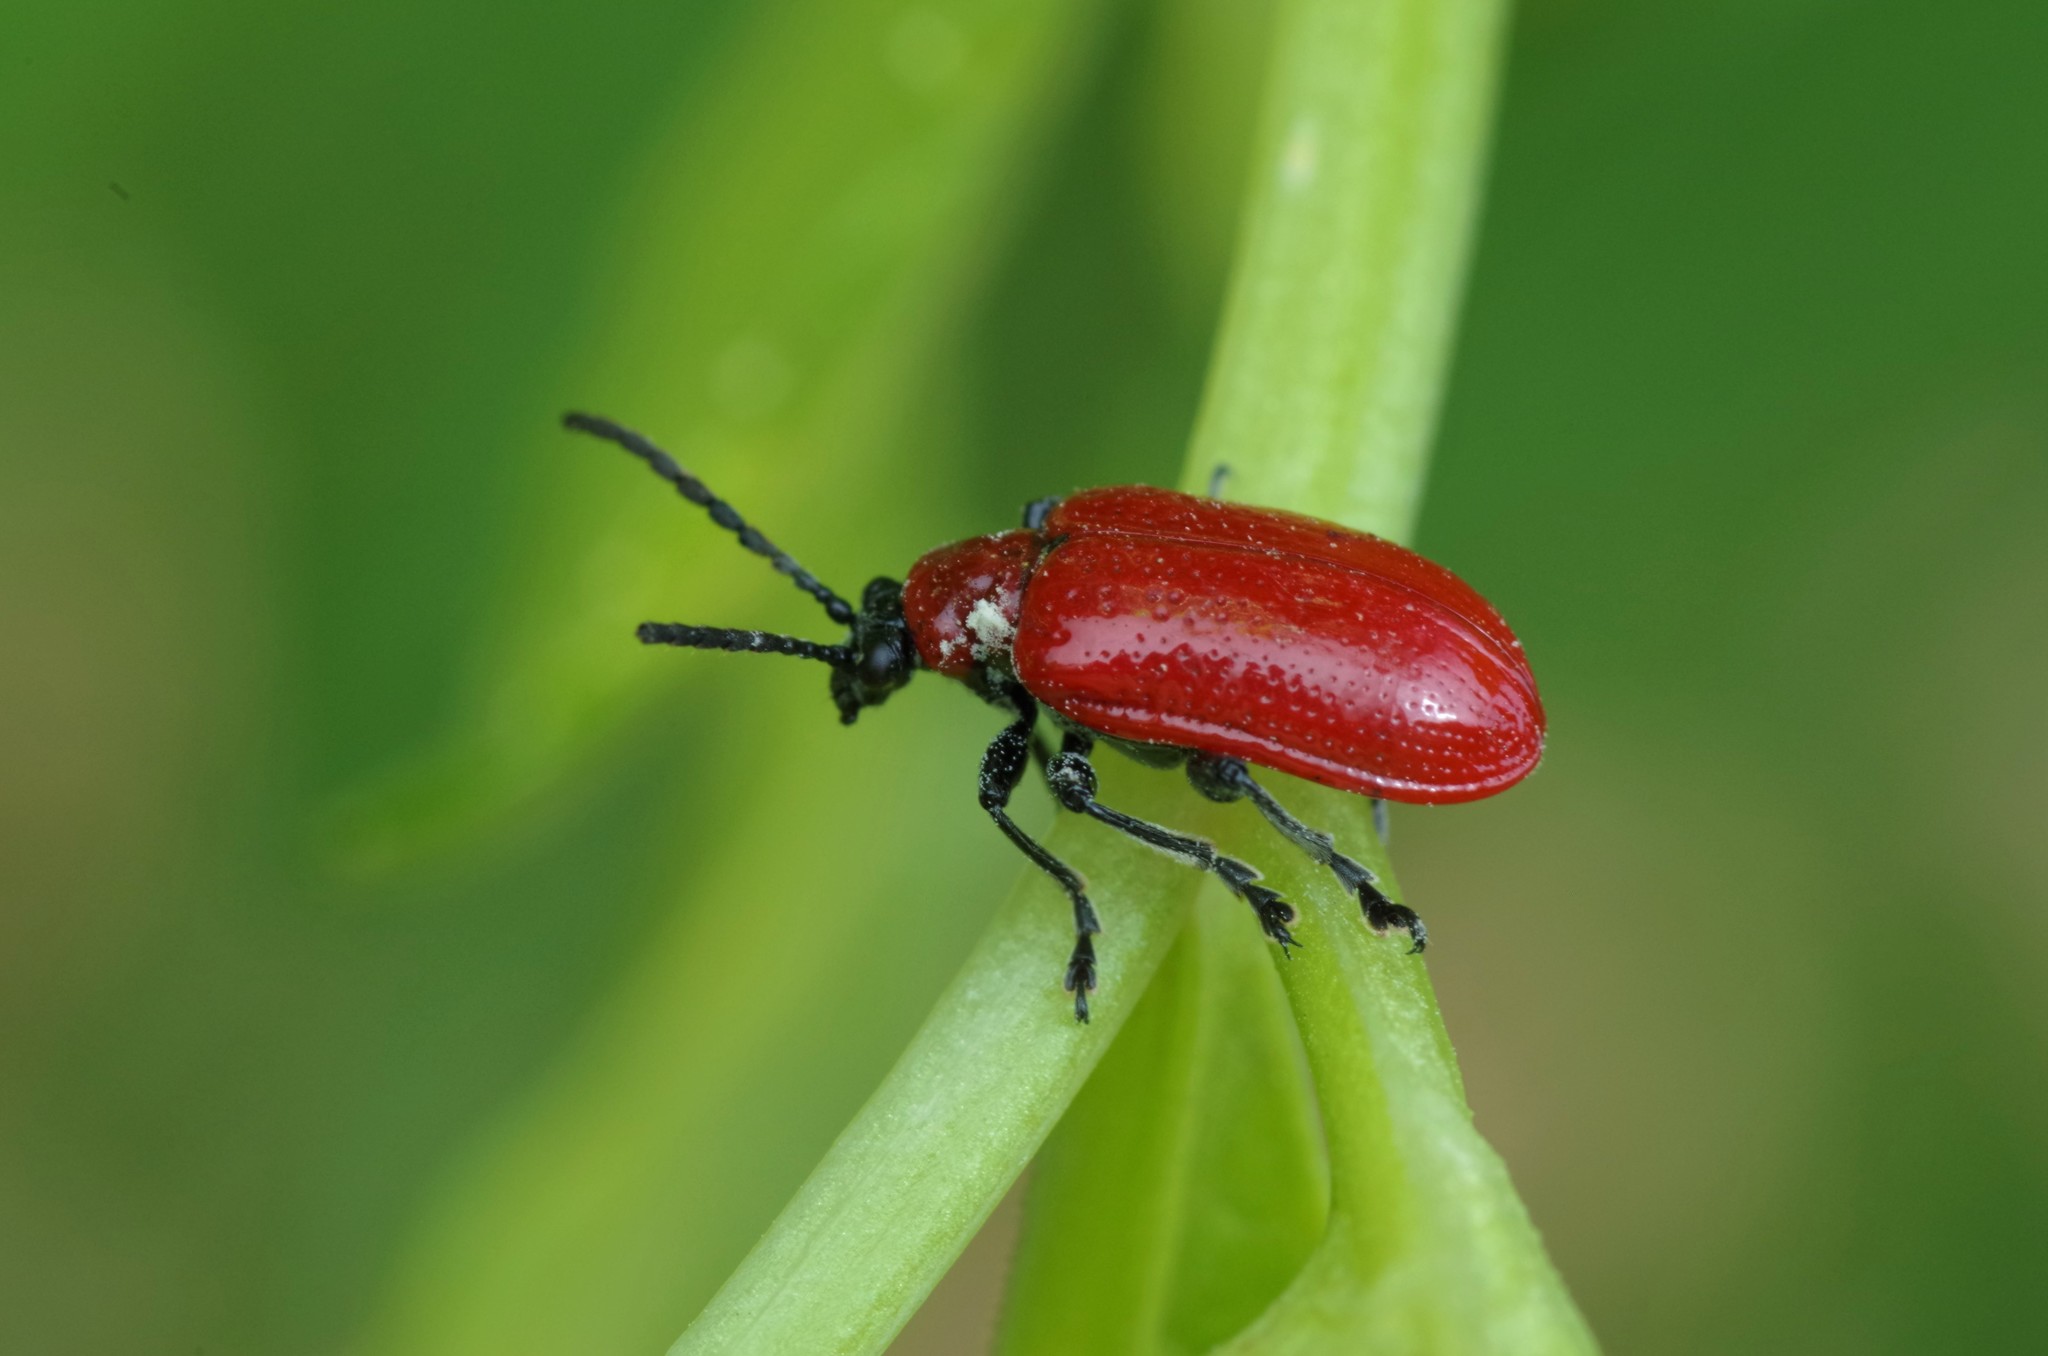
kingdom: Animalia
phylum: Arthropoda
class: Insecta
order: Coleoptera
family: Chrysomelidae
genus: Lilioceris
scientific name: Lilioceris lilii
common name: Lily beetle
